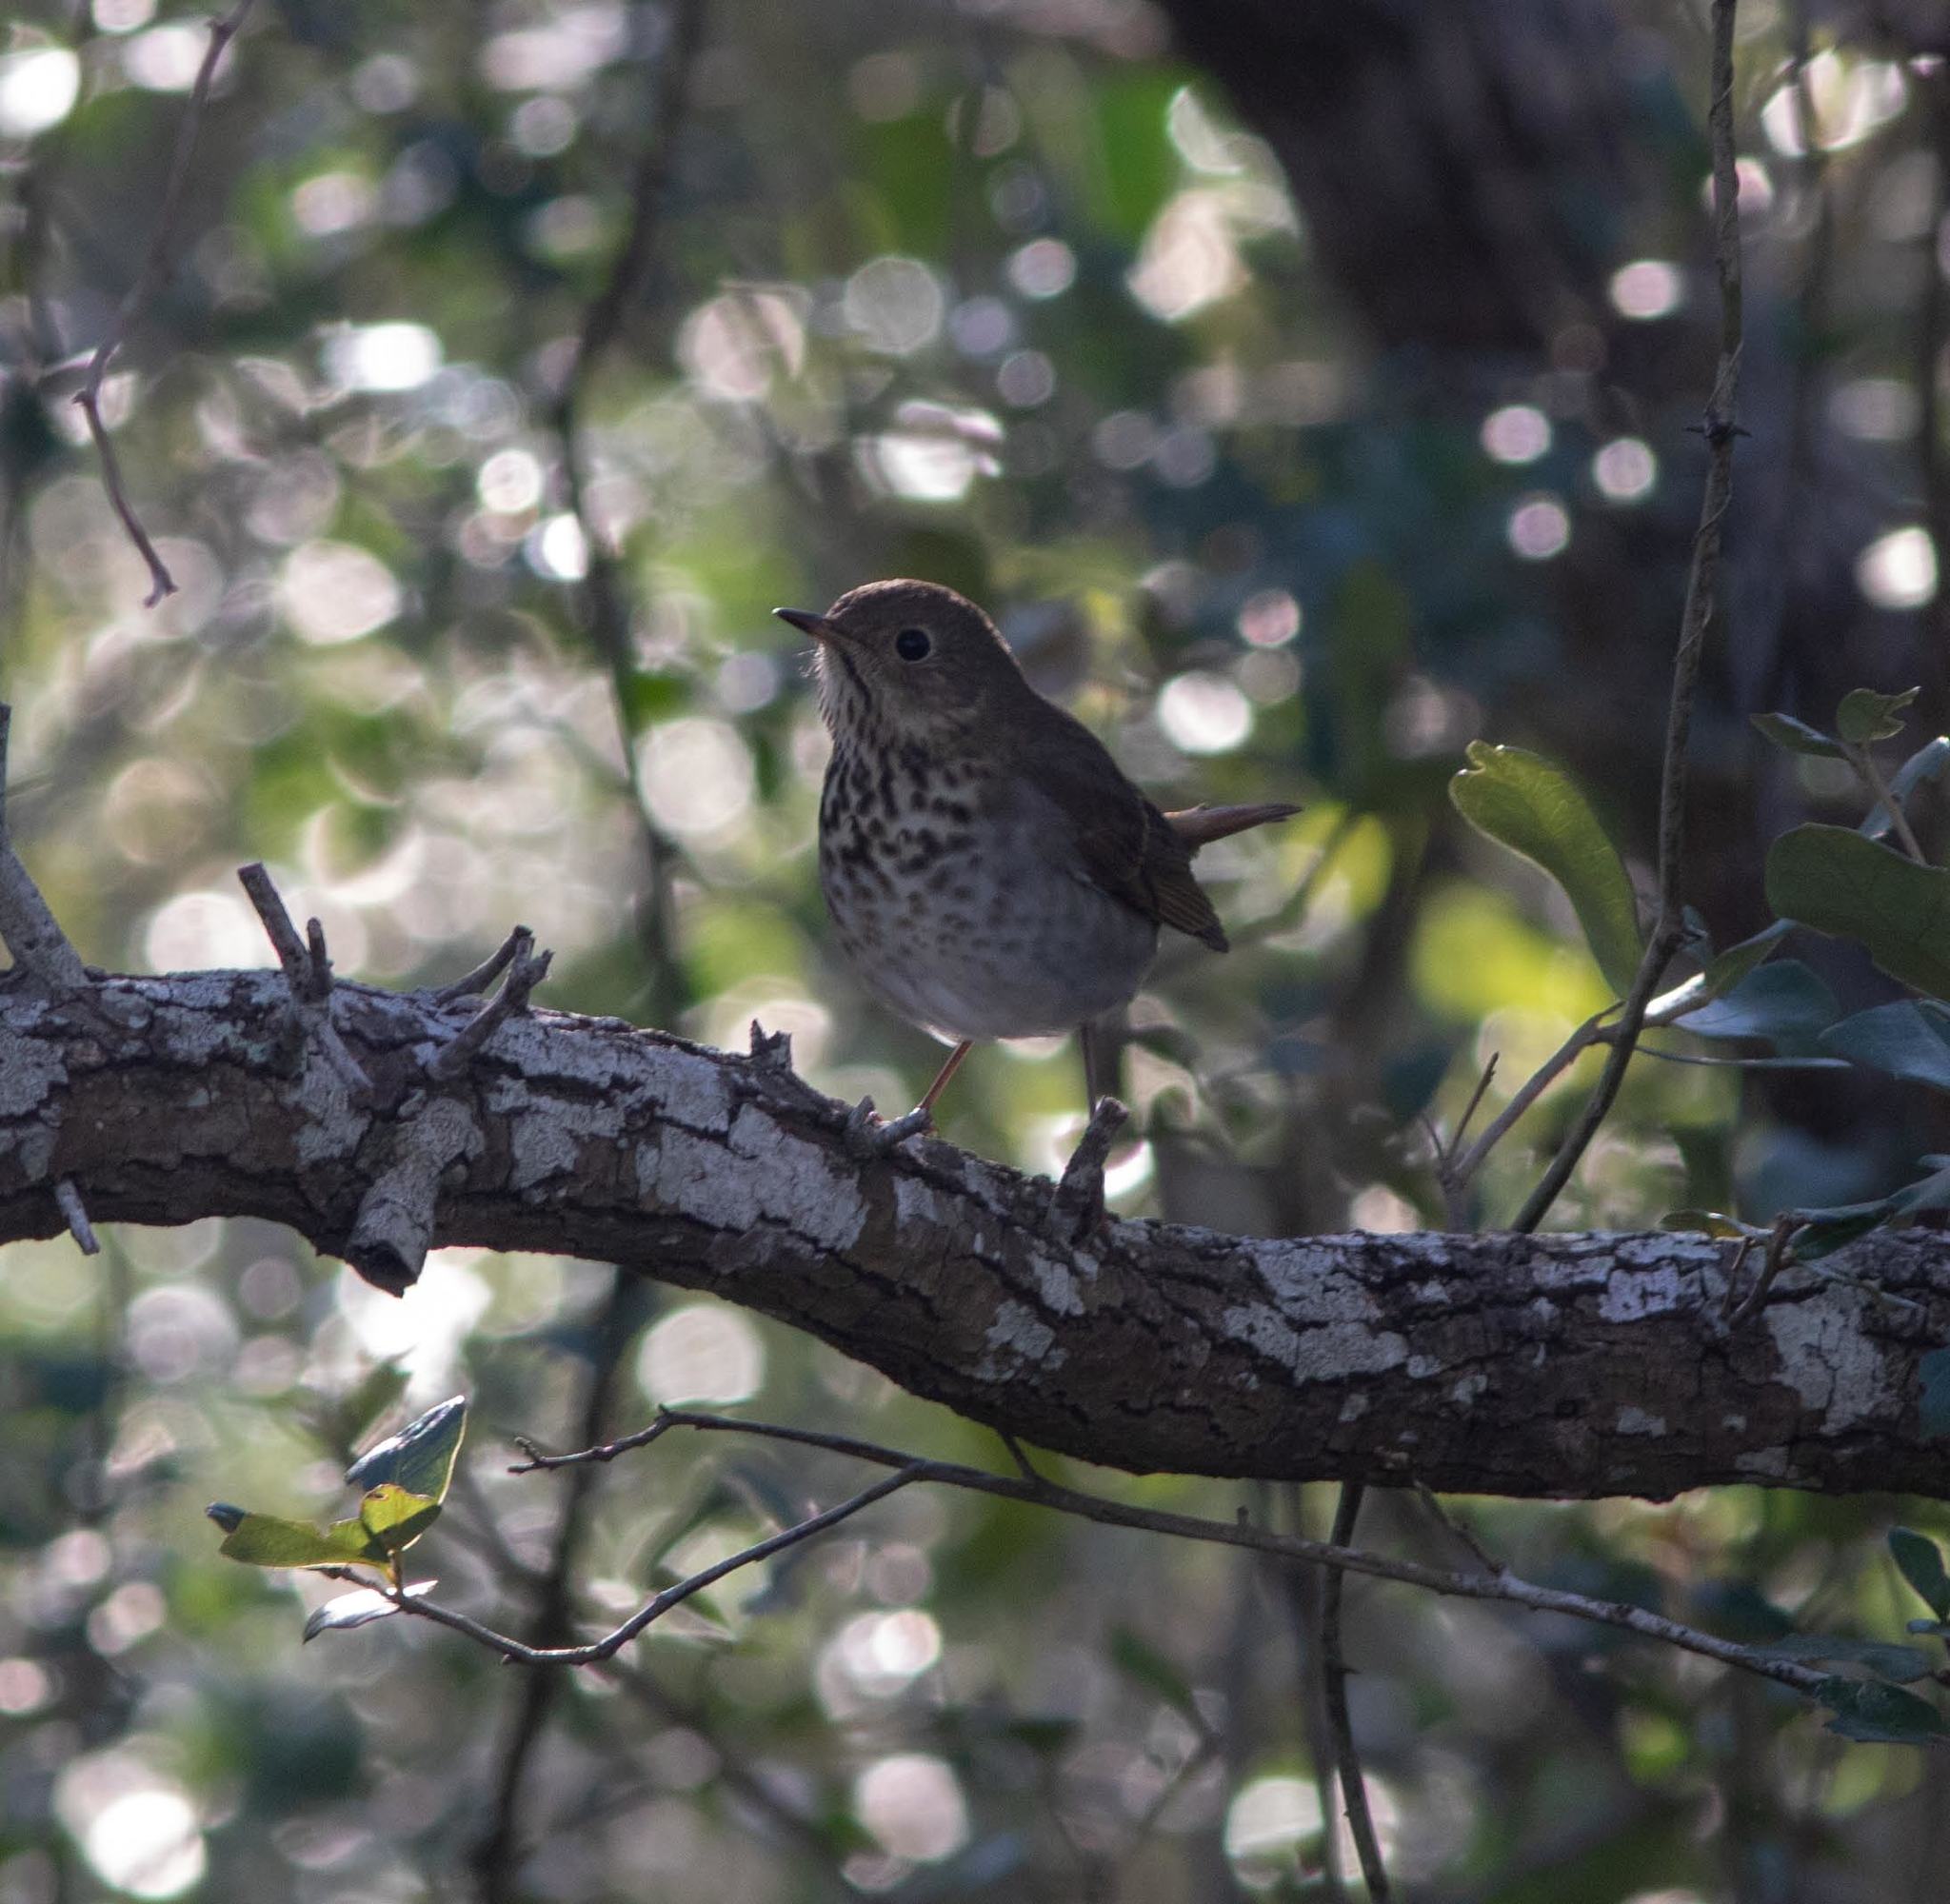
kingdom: Animalia
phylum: Chordata
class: Aves
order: Passeriformes
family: Turdidae
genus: Catharus
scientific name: Catharus guttatus
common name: Hermit thrush
